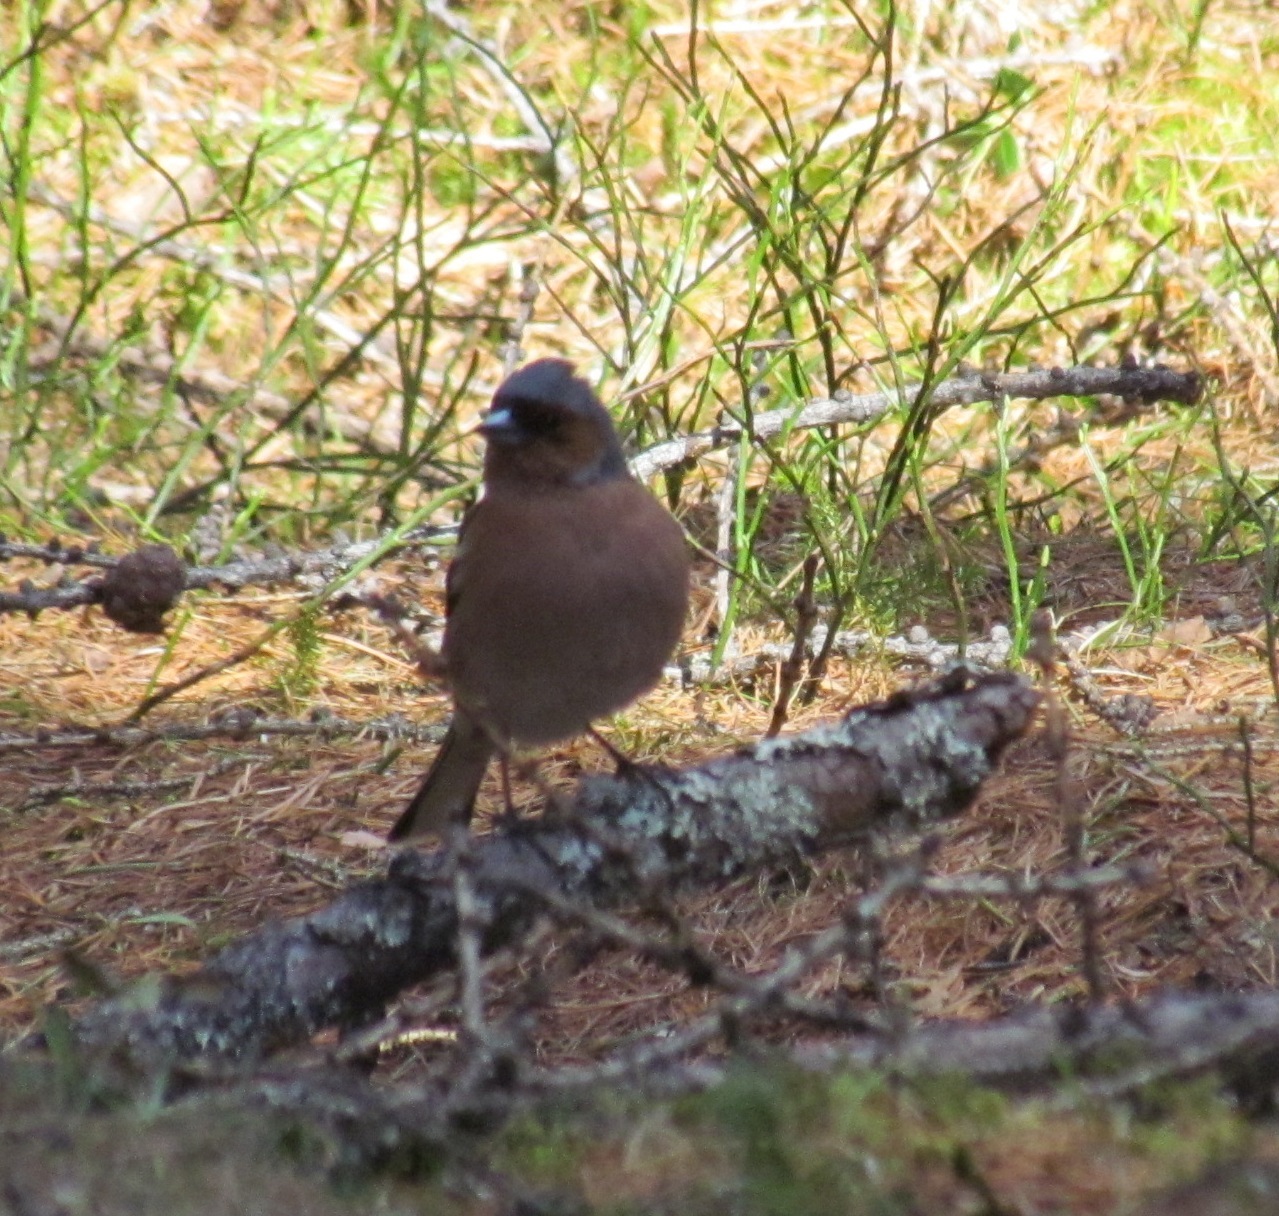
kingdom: Animalia
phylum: Chordata
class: Aves
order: Passeriformes
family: Fringillidae
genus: Fringilla
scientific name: Fringilla coelebs
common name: Common chaffinch
